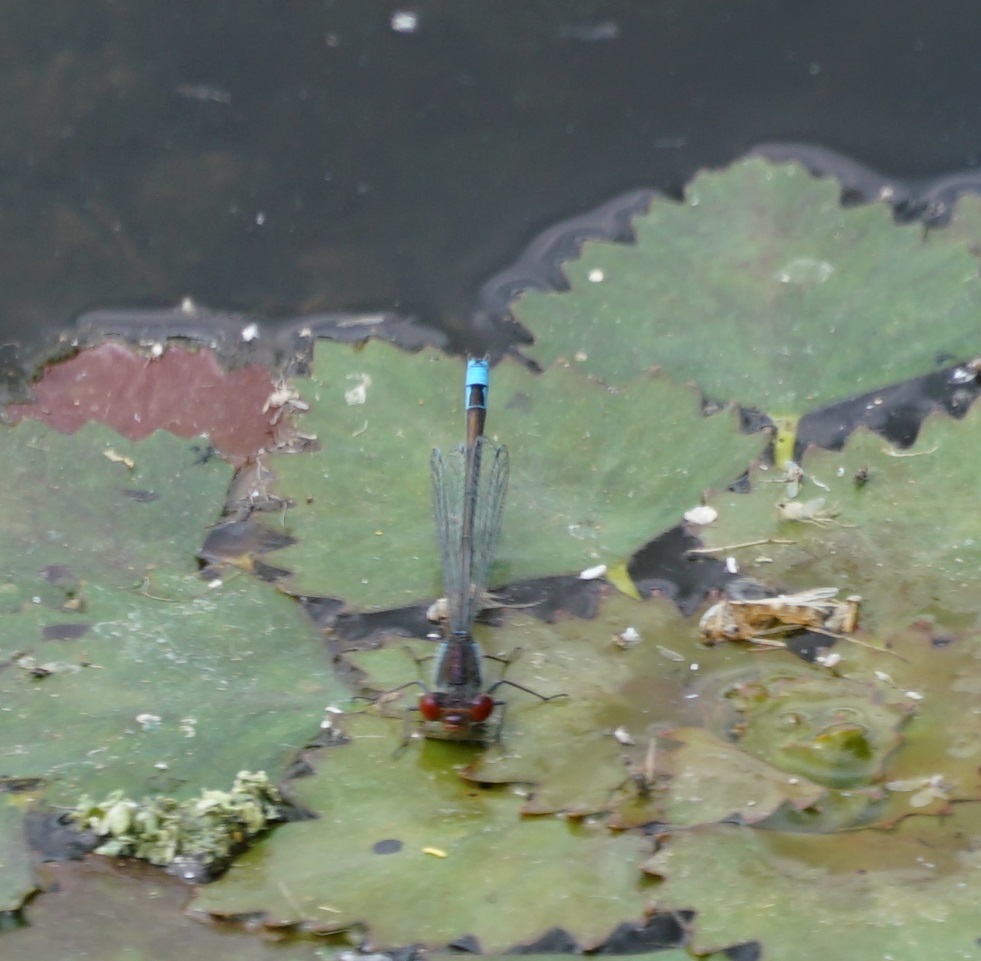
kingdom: Animalia
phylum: Arthropoda
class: Insecta
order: Odonata
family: Coenagrionidae
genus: Erythromma
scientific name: Erythromma viridulum
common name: Small red-eyed damselfly
